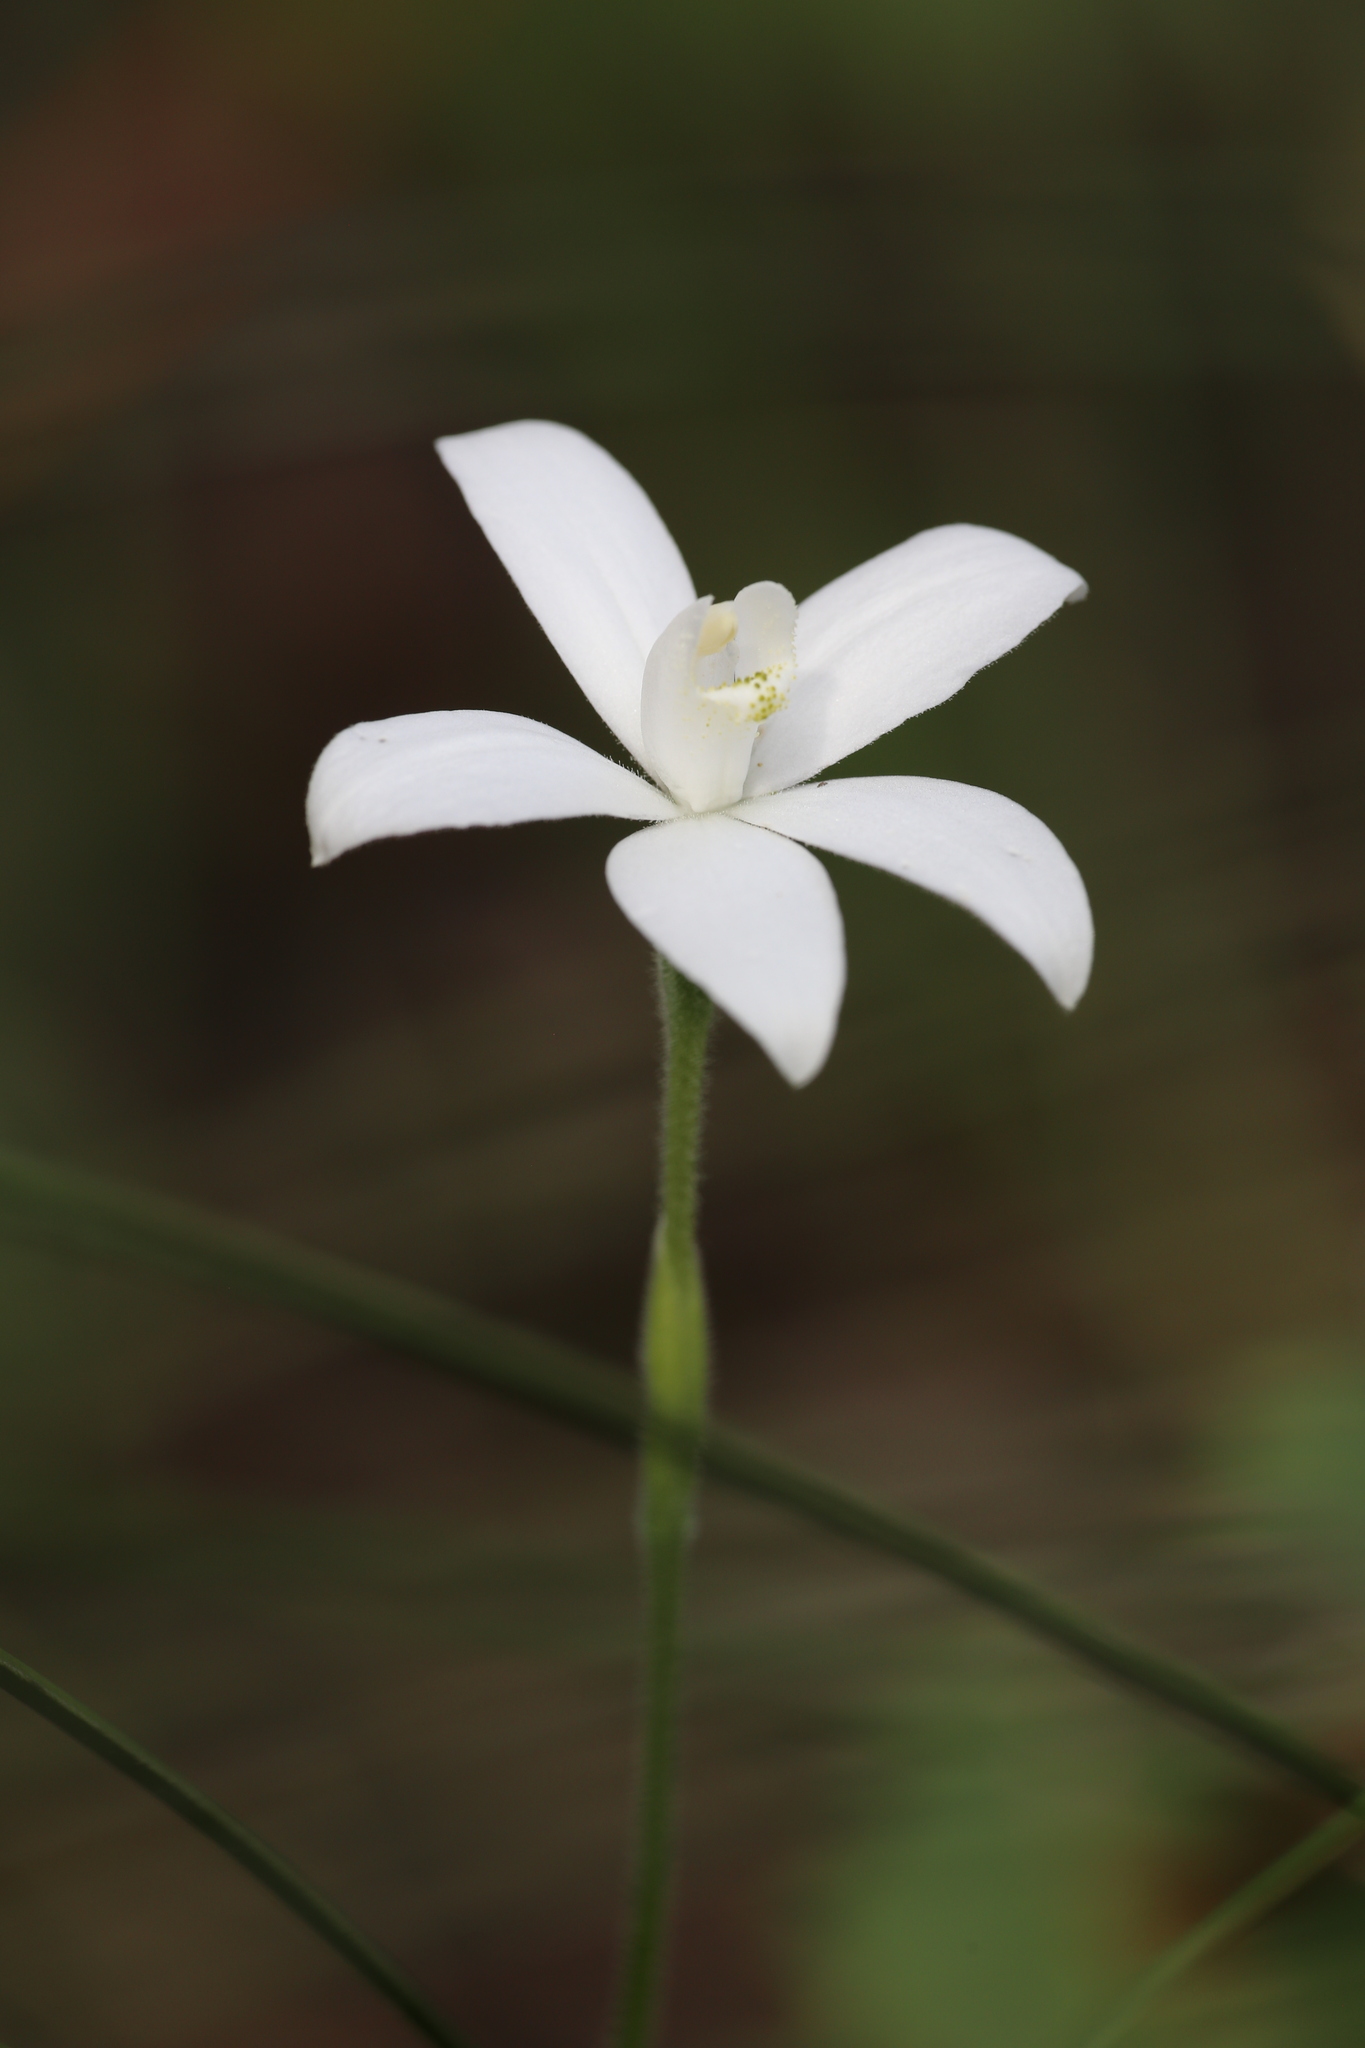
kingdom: Plantae
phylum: Tracheophyta
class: Liliopsida
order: Asparagales
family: Orchidaceae
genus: Caladenia
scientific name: Caladenia sericea
